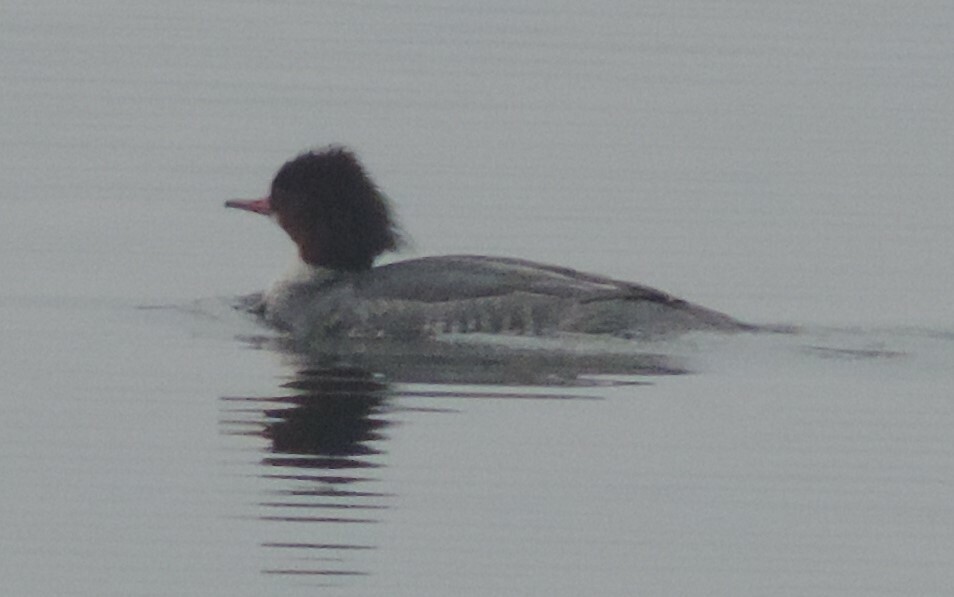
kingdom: Animalia
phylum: Chordata
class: Aves
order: Anseriformes
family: Anatidae
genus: Mergus
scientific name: Mergus merganser
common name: Common merganser
